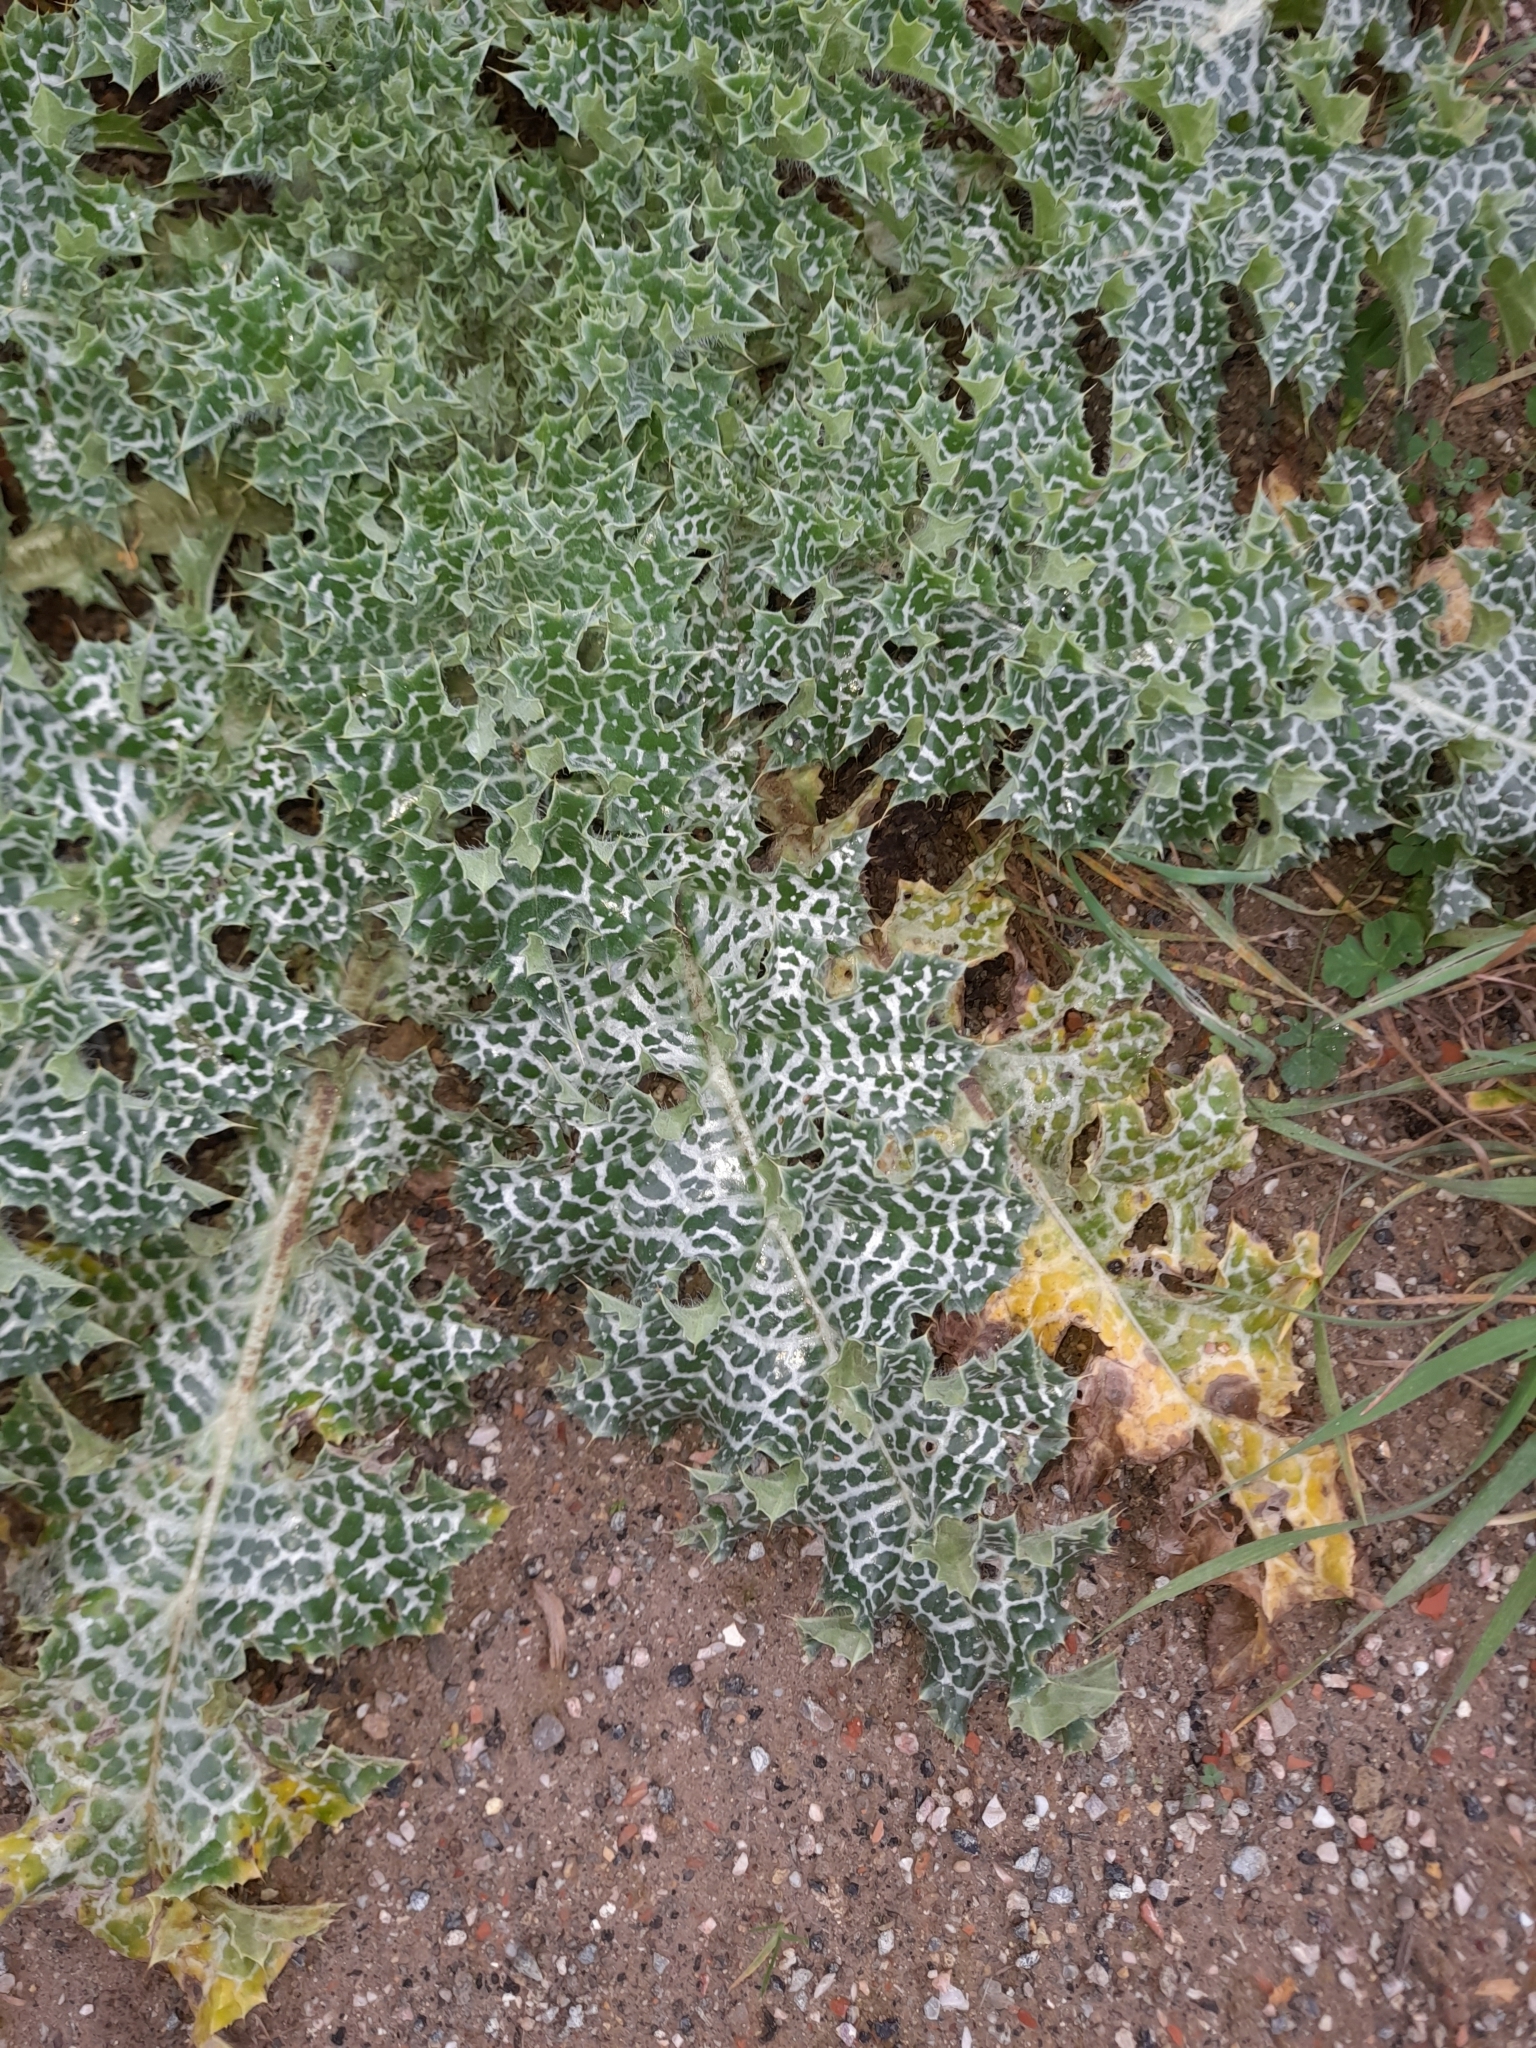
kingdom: Plantae
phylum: Tracheophyta
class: Magnoliopsida
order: Asterales
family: Asteraceae
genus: Silybum
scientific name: Silybum marianum
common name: Milk thistle
